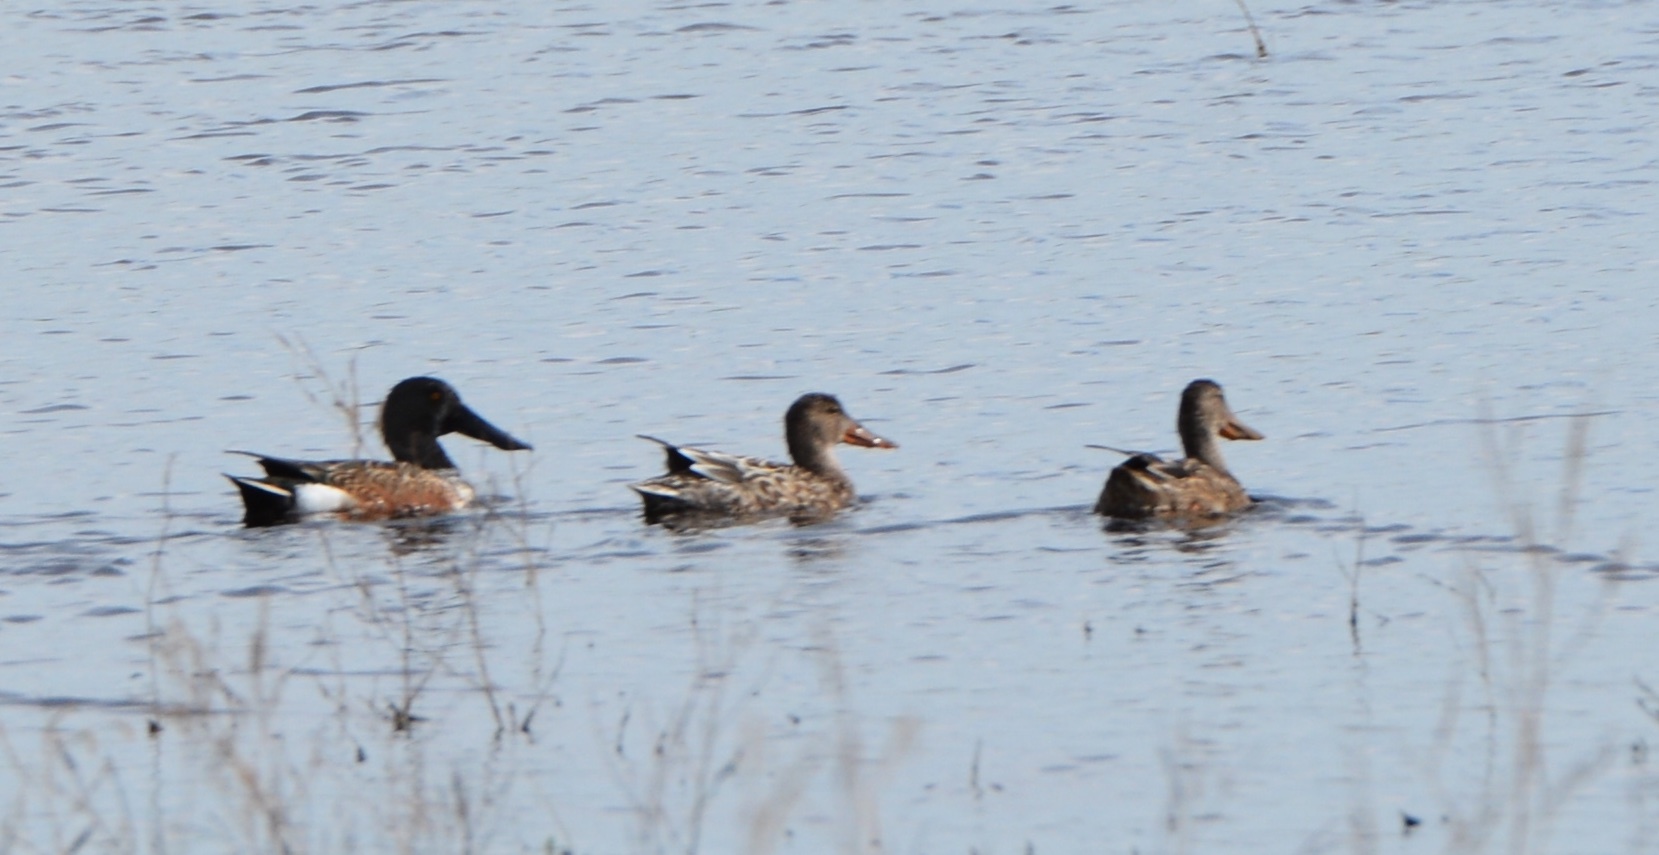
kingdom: Animalia
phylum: Chordata
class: Aves
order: Anseriformes
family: Anatidae
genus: Spatula
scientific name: Spatula clypeata
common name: Northern shoveler
